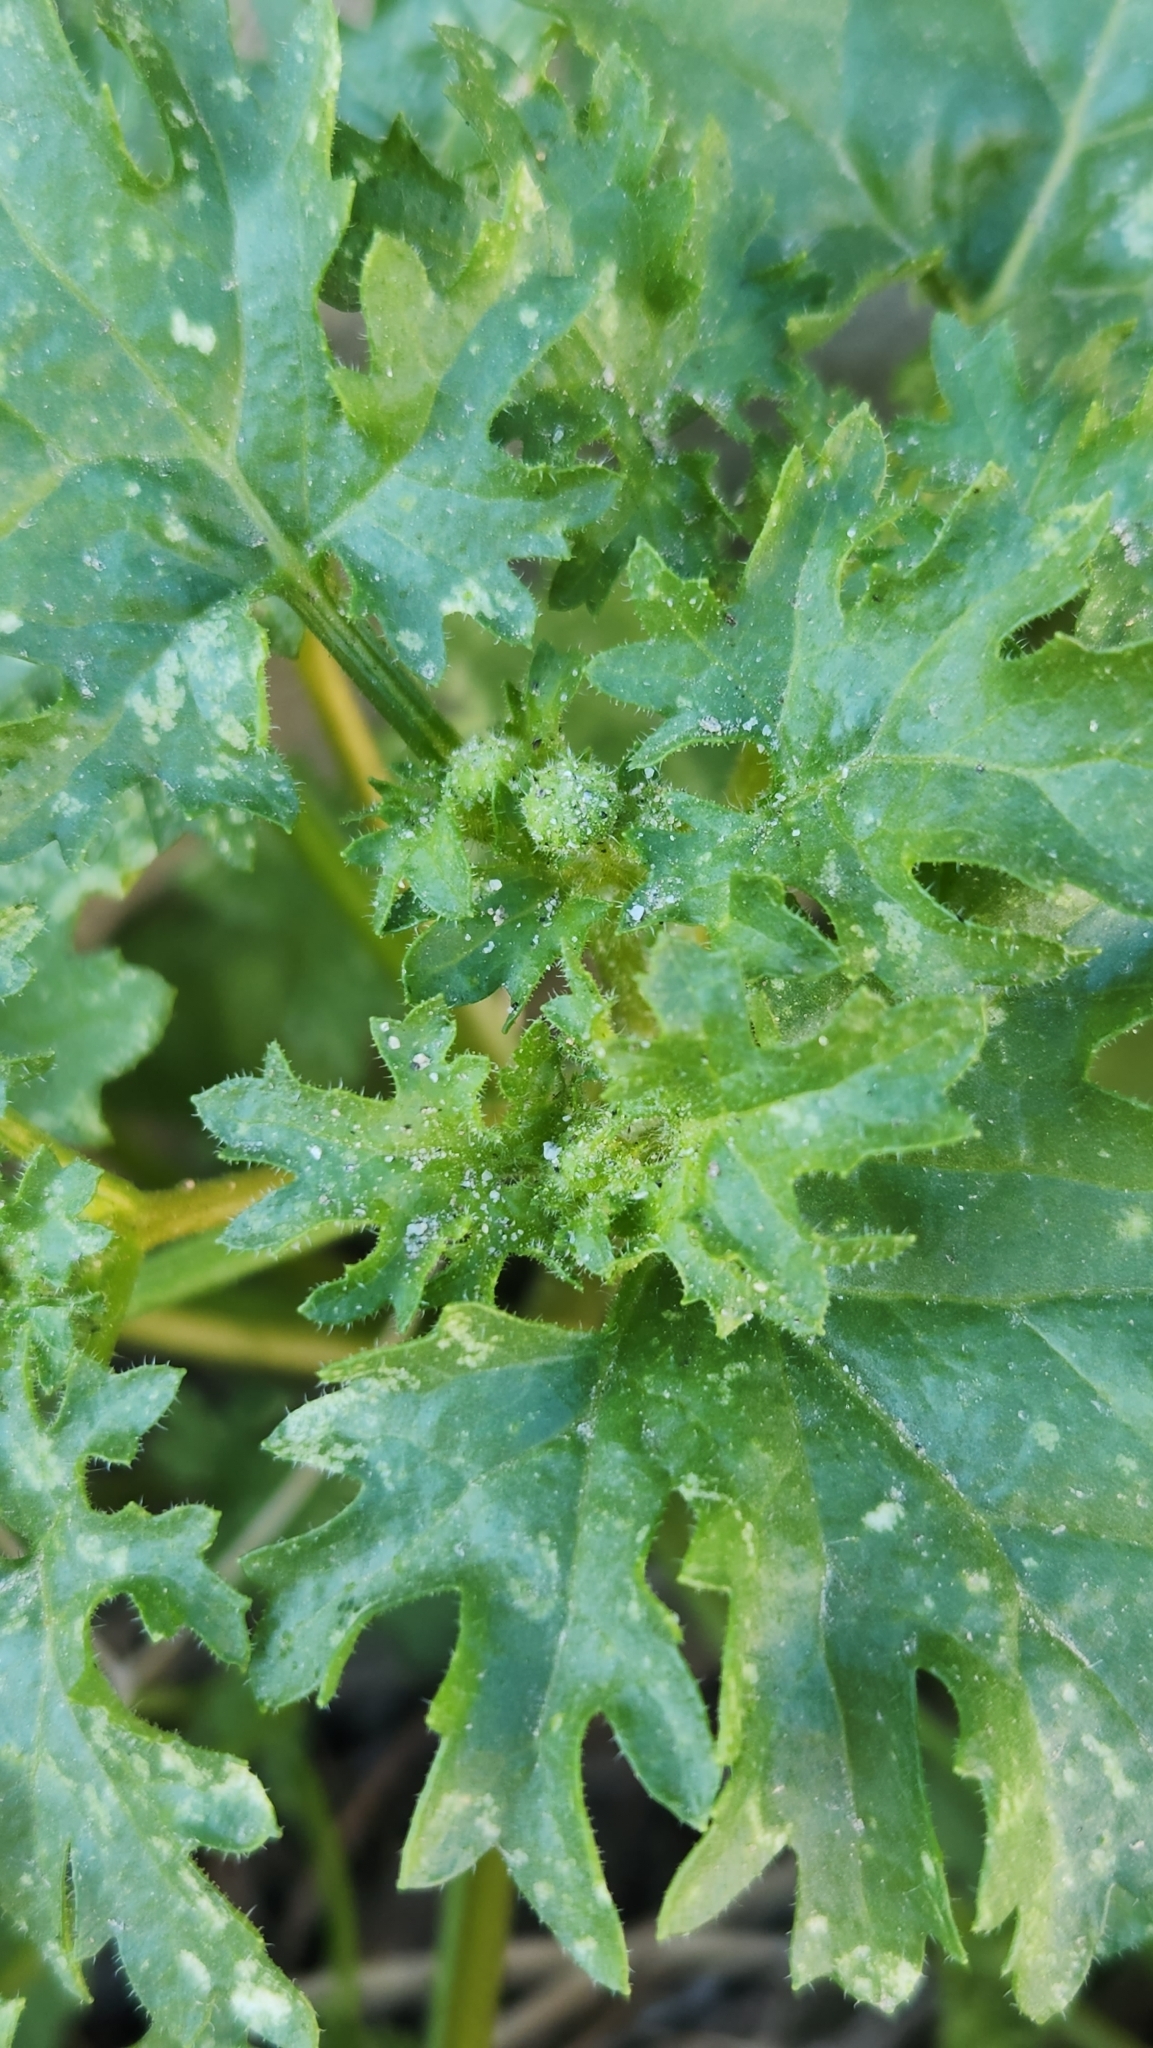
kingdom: Plantae
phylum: Tracheophyta
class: Magnoliopsida
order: Asterales
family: Asteraceae
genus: Laphamia
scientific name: Laphamia emoryi
